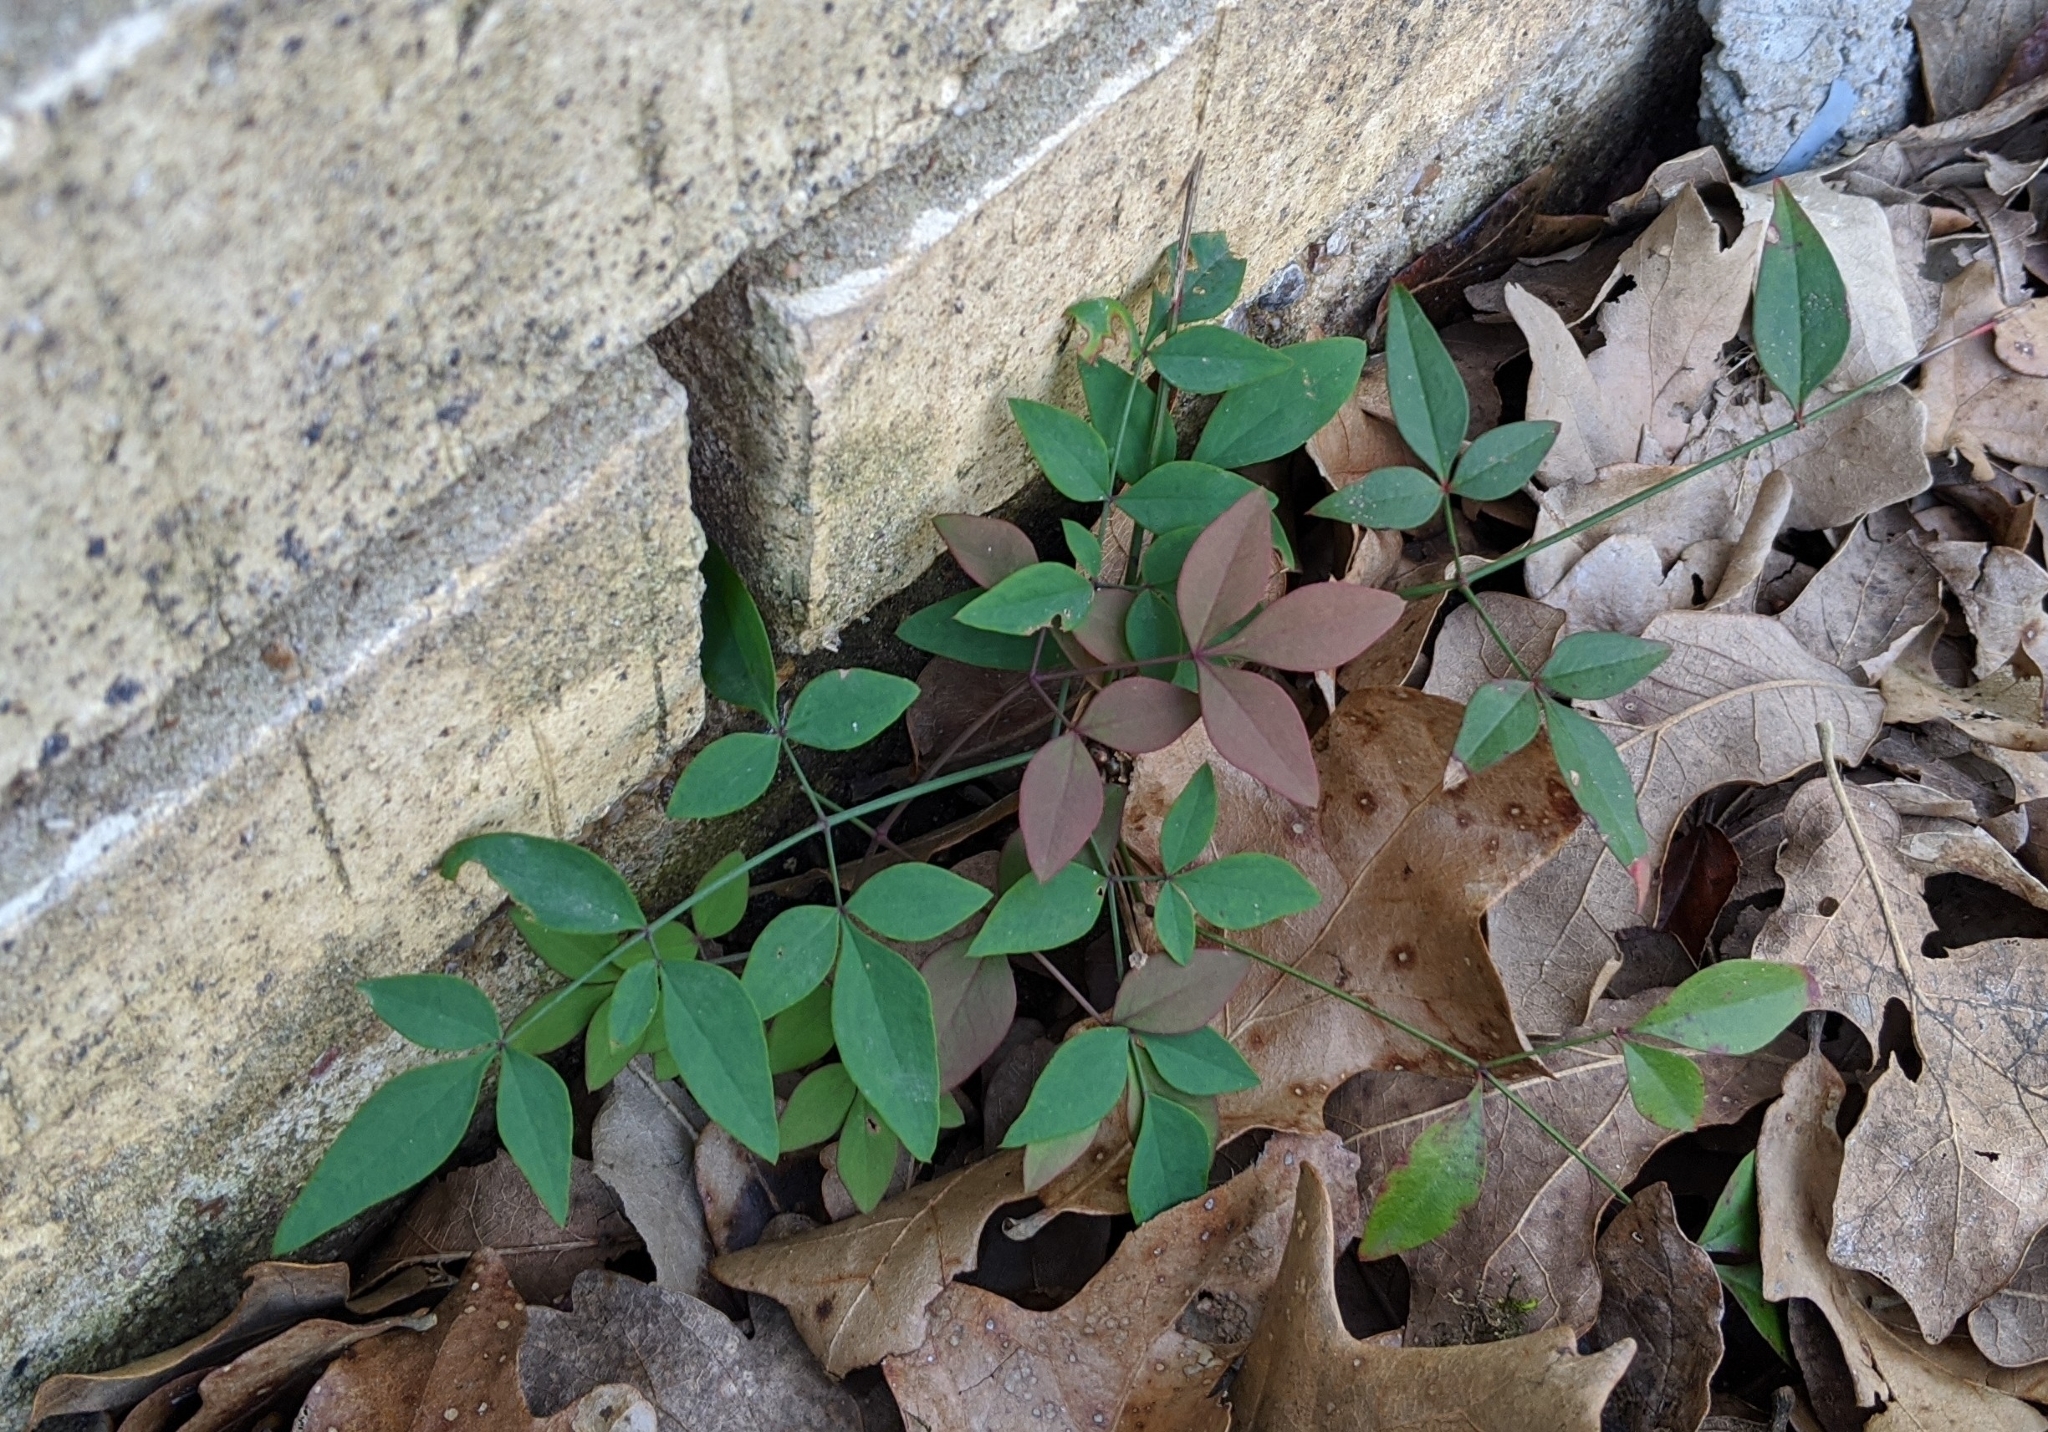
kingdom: Plantae
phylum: Tracheophyta
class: Magnoliopsida
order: Ranunculales
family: Berberidaceae
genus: Nandina
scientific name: Nandina domestica
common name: Sacred bamboo
